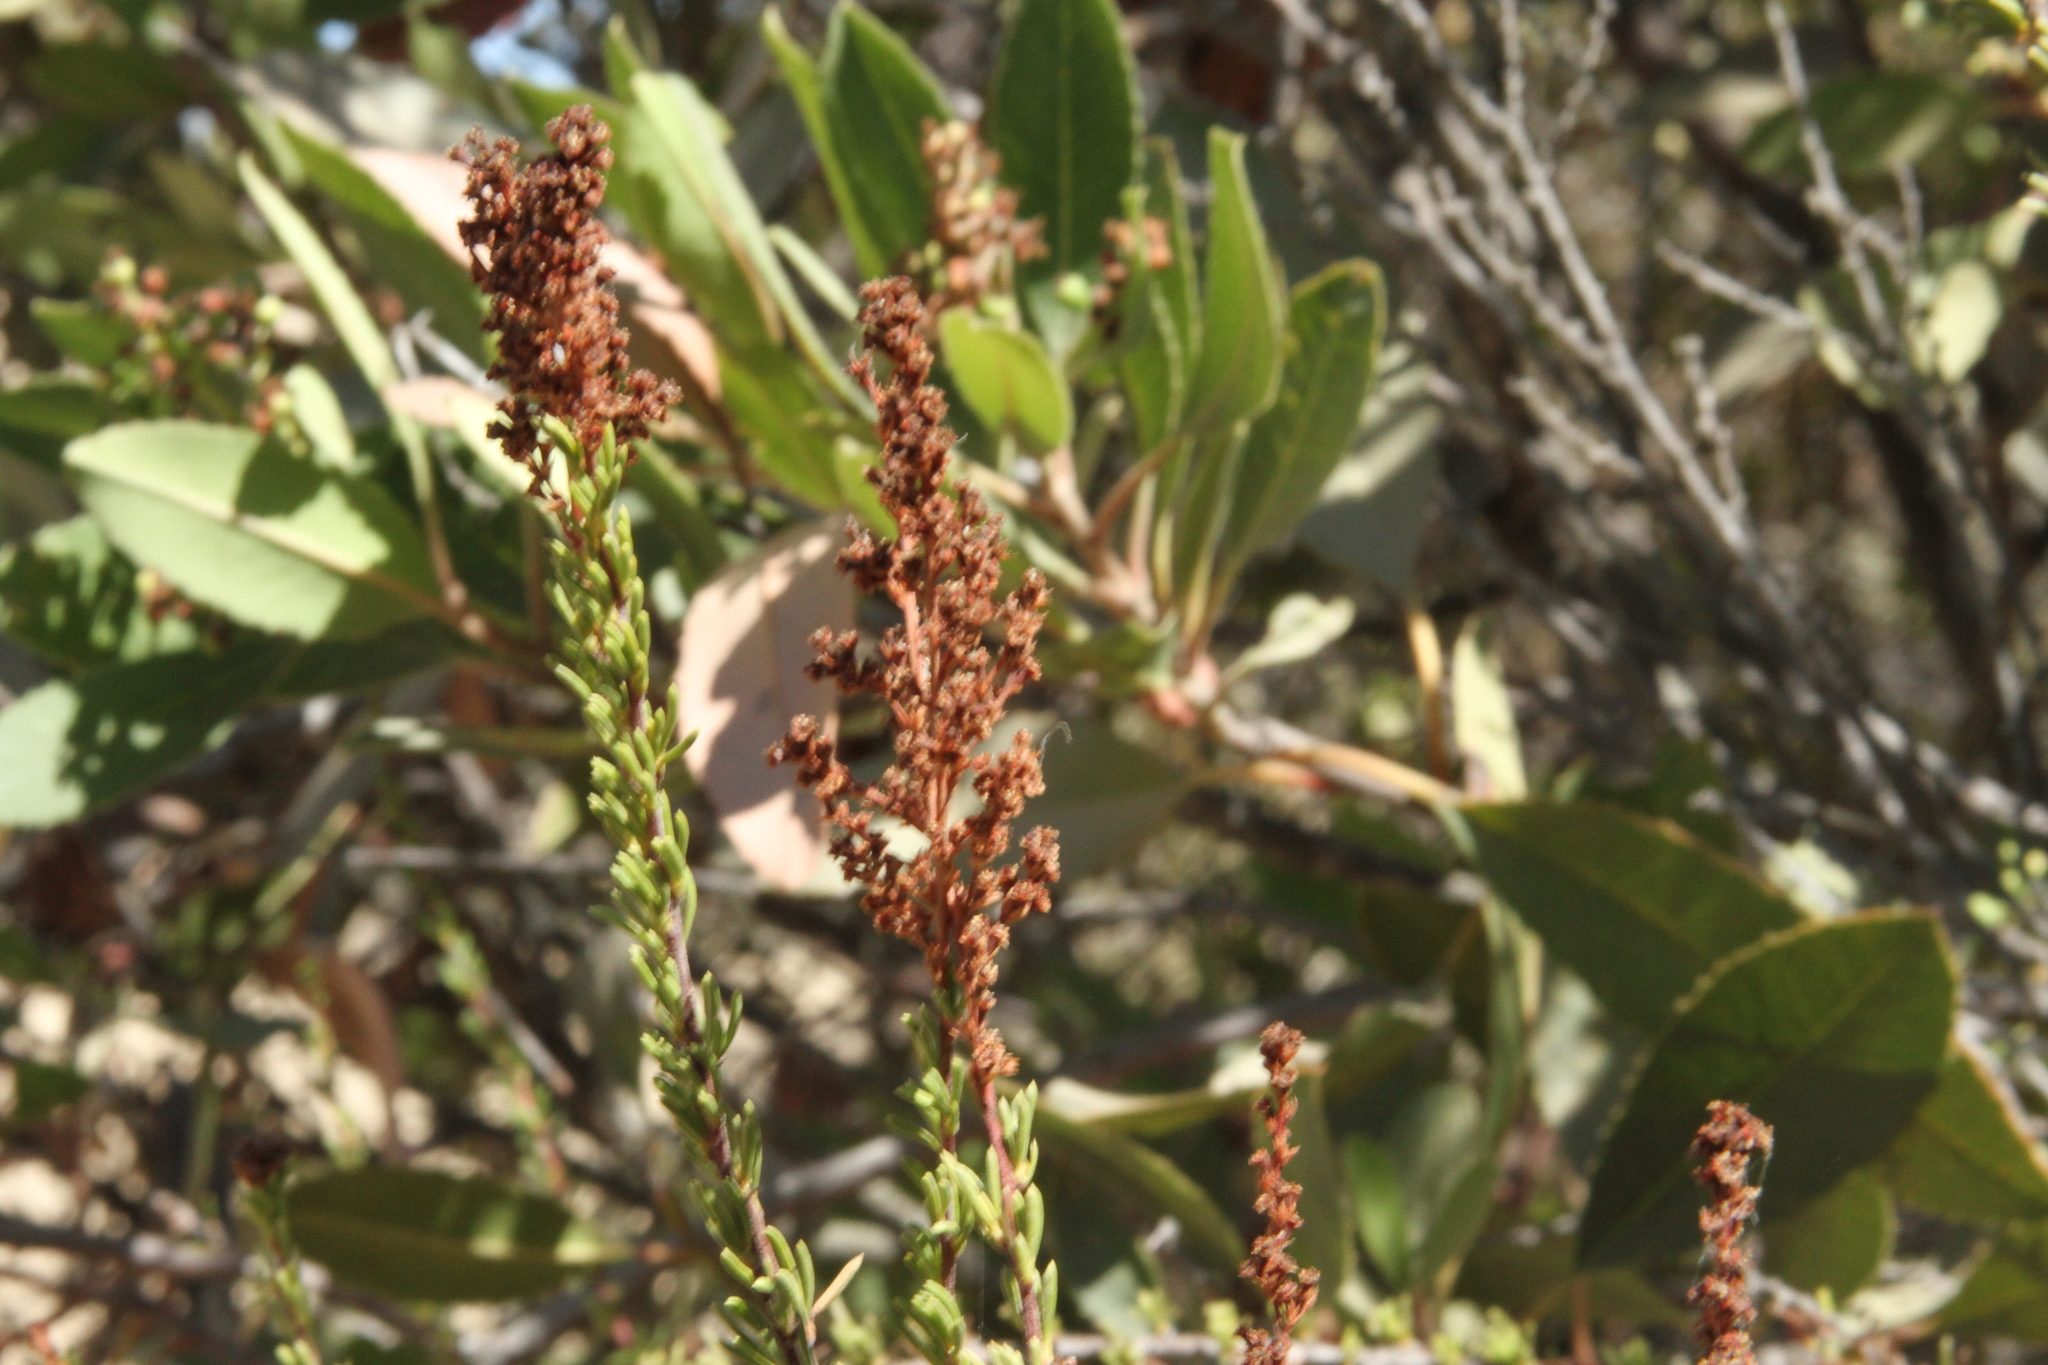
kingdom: Plantae
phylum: Tracheophyta
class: Magnoliopsida
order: Rosales
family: Rosaceae
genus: Adenostoma
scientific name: Adenostoma fasciculatum
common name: Chamise
